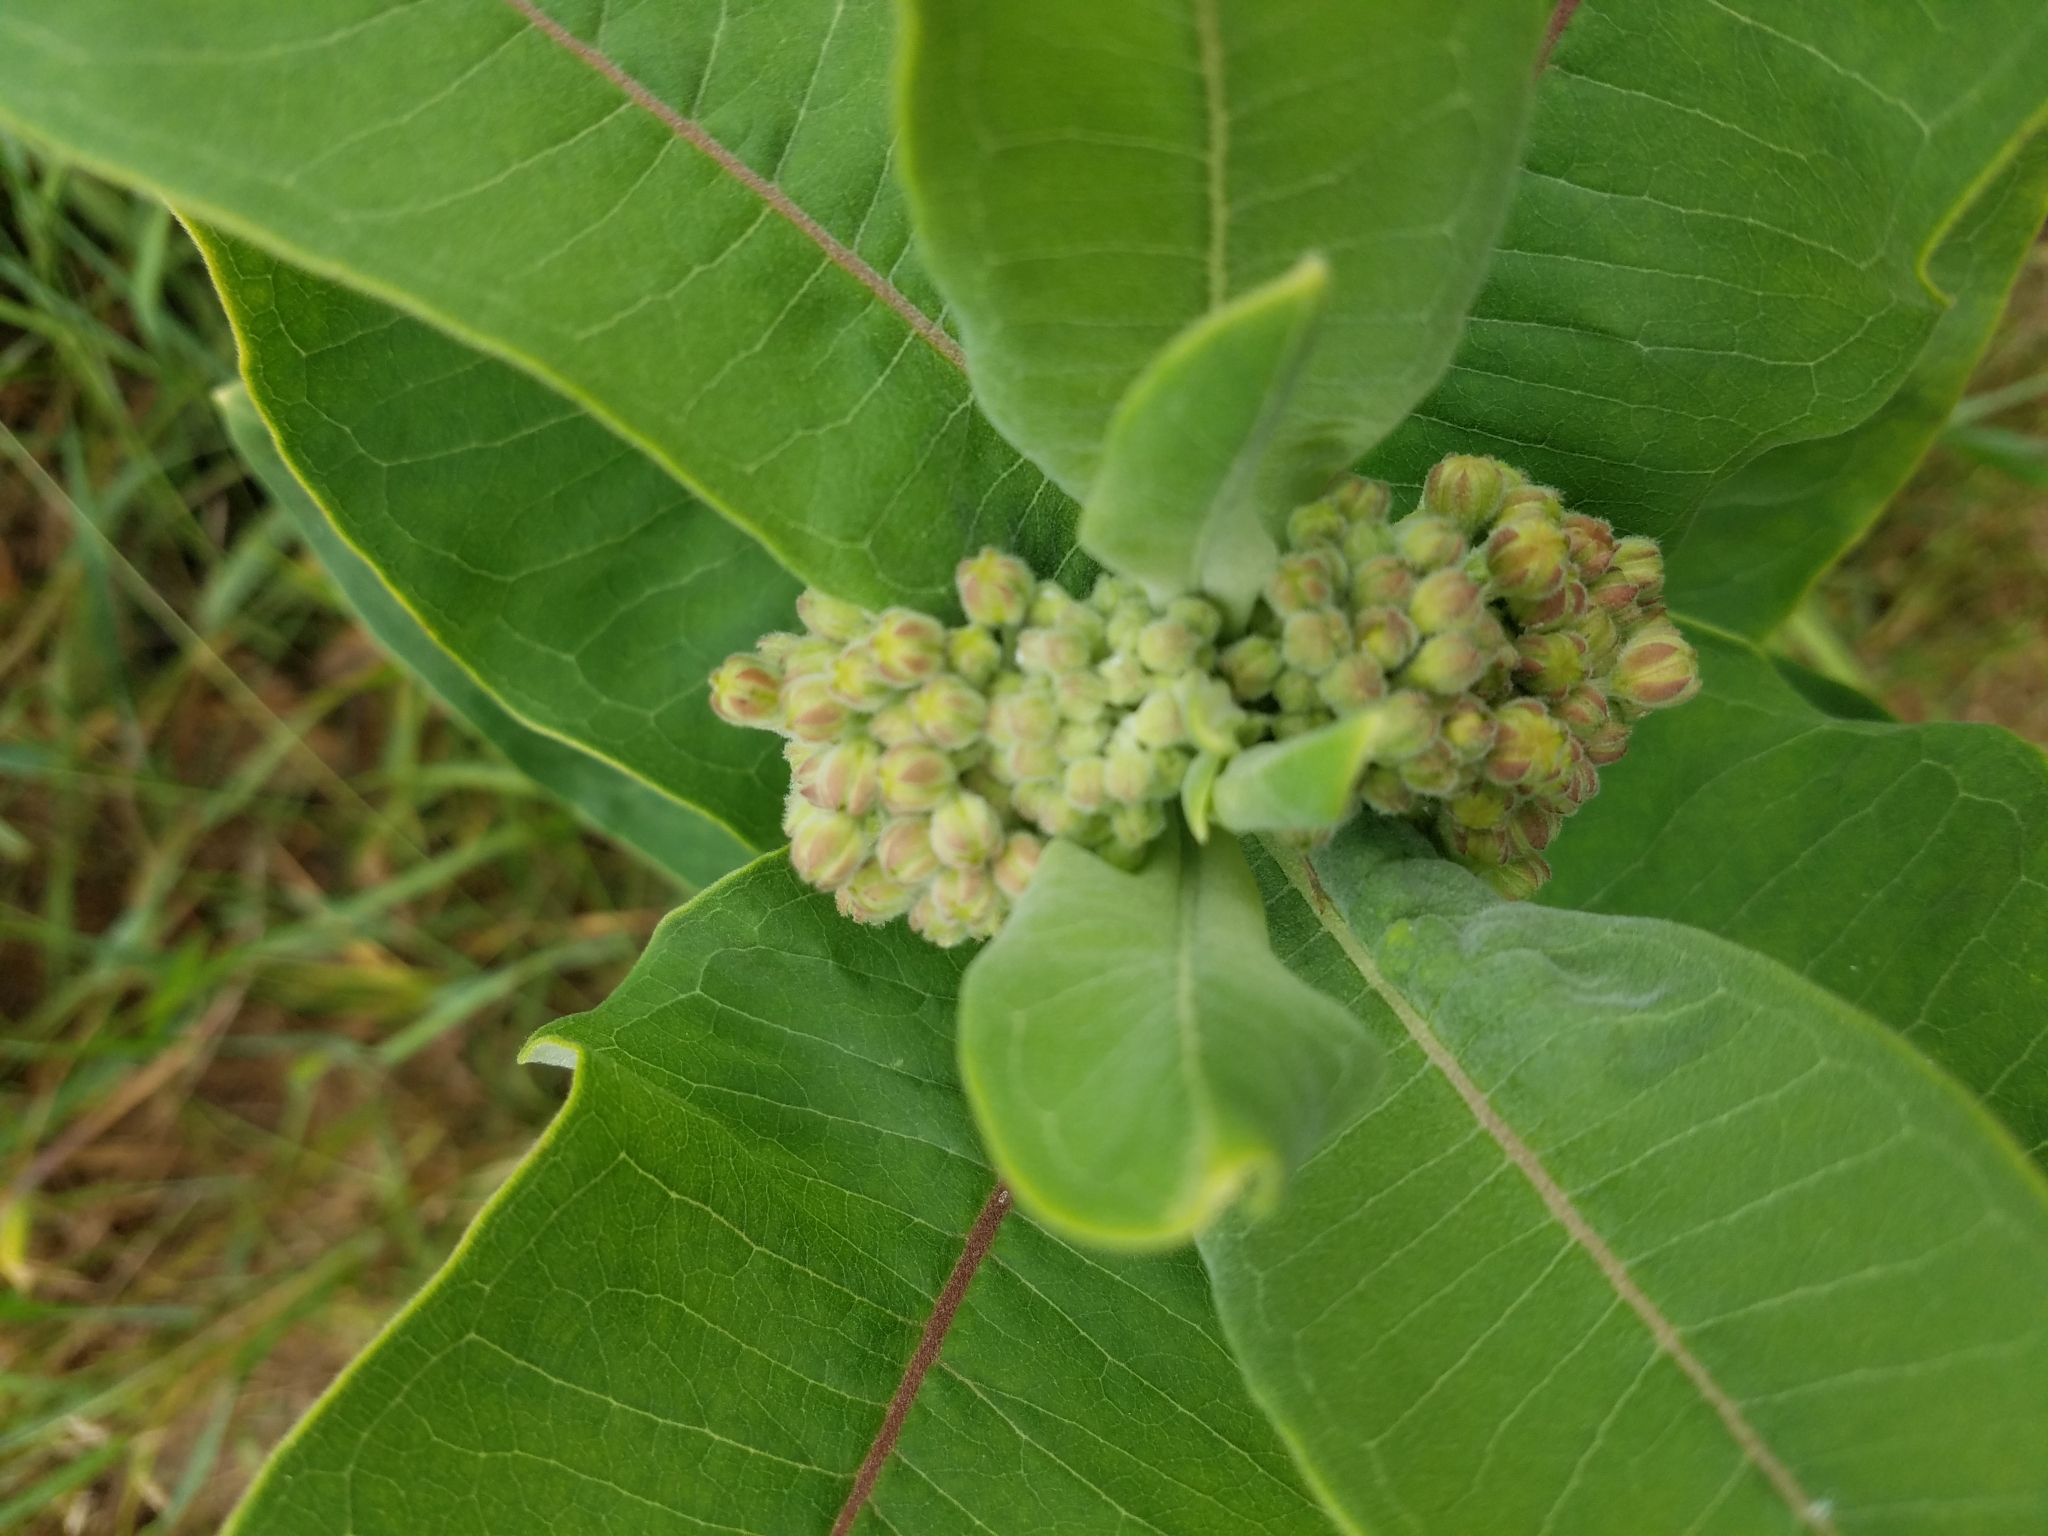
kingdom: Plantae
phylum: Tracheophyta
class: Magnoliopsida
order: Gentianales
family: Apocynaceae
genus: Asclepias
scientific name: Asclepias syriaca
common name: Common milkweed
